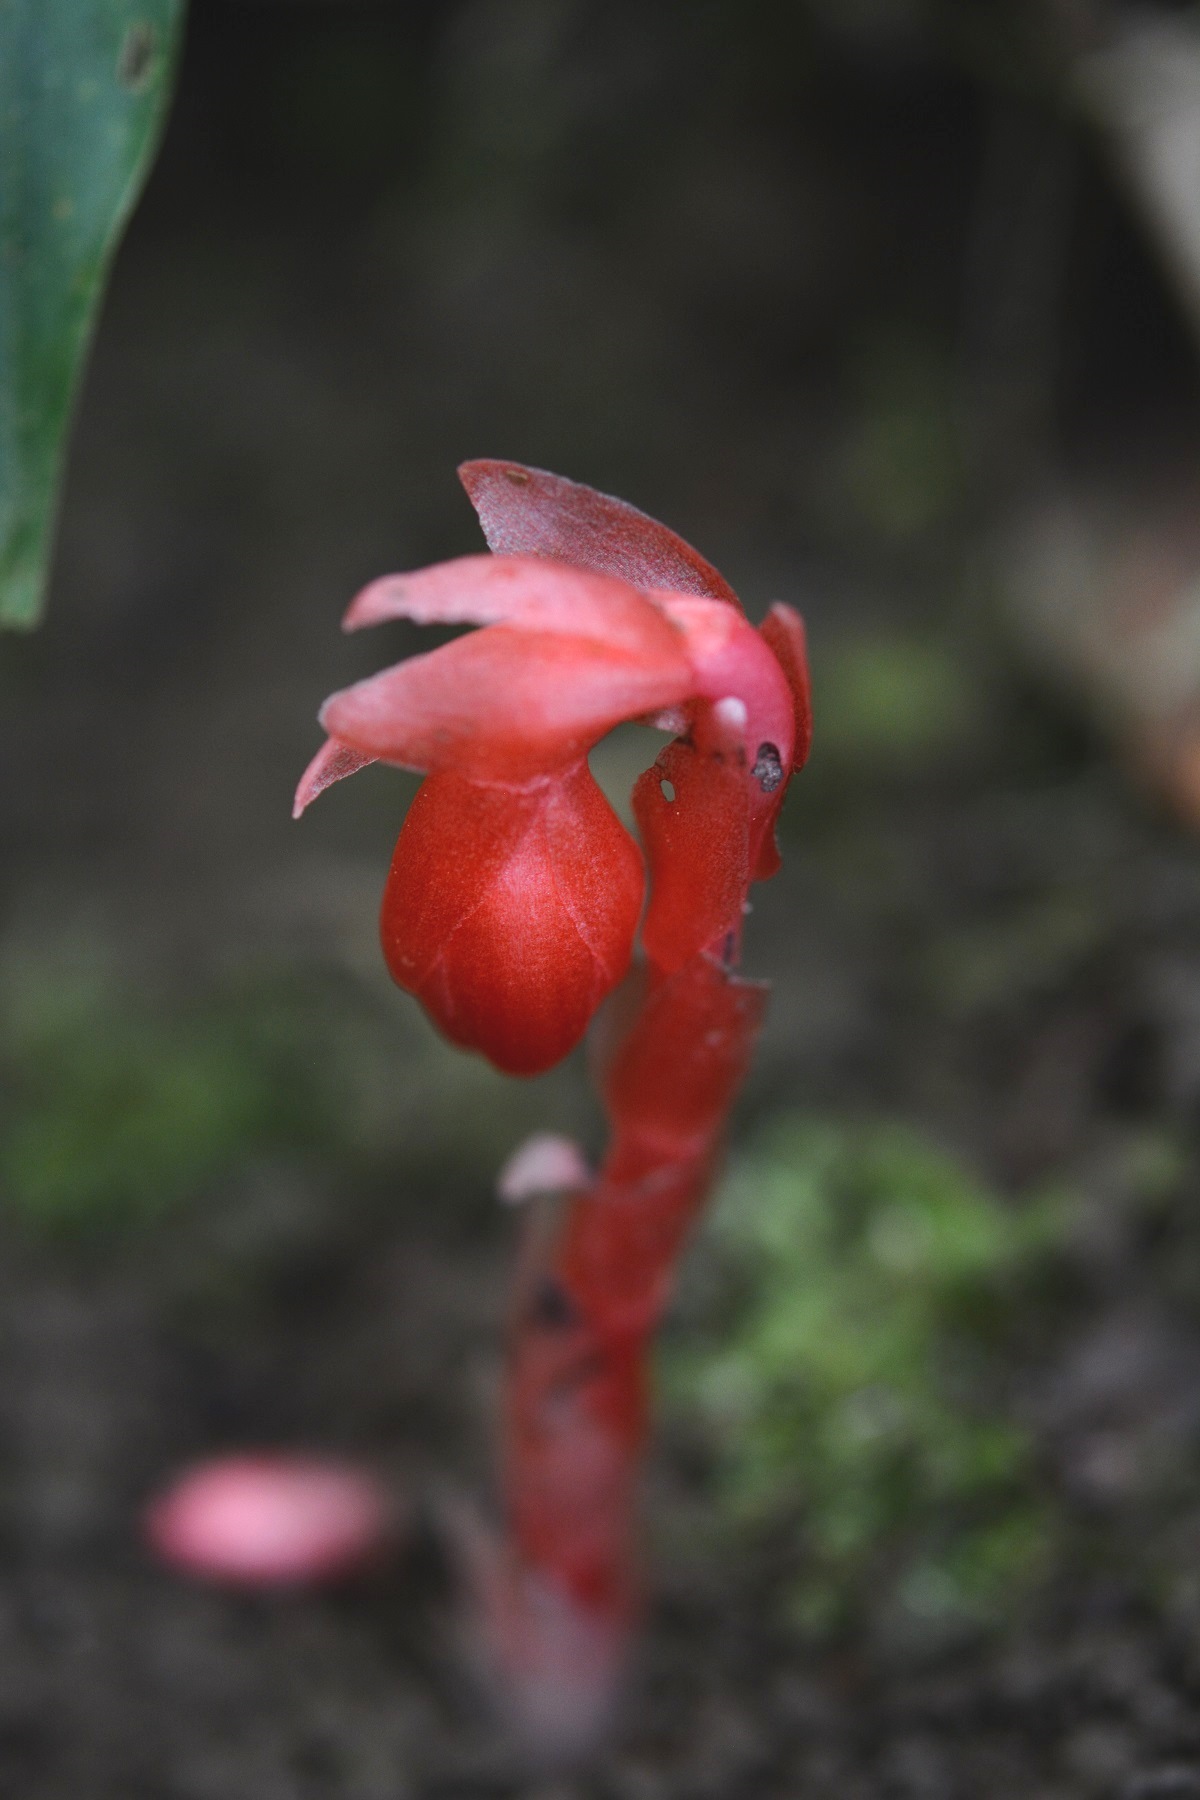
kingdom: Plantae
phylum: Tracheophyta
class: Magnoliopsida
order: Ericales
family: Ericaceae
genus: Monotropa
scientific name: Monotropa coccinea
